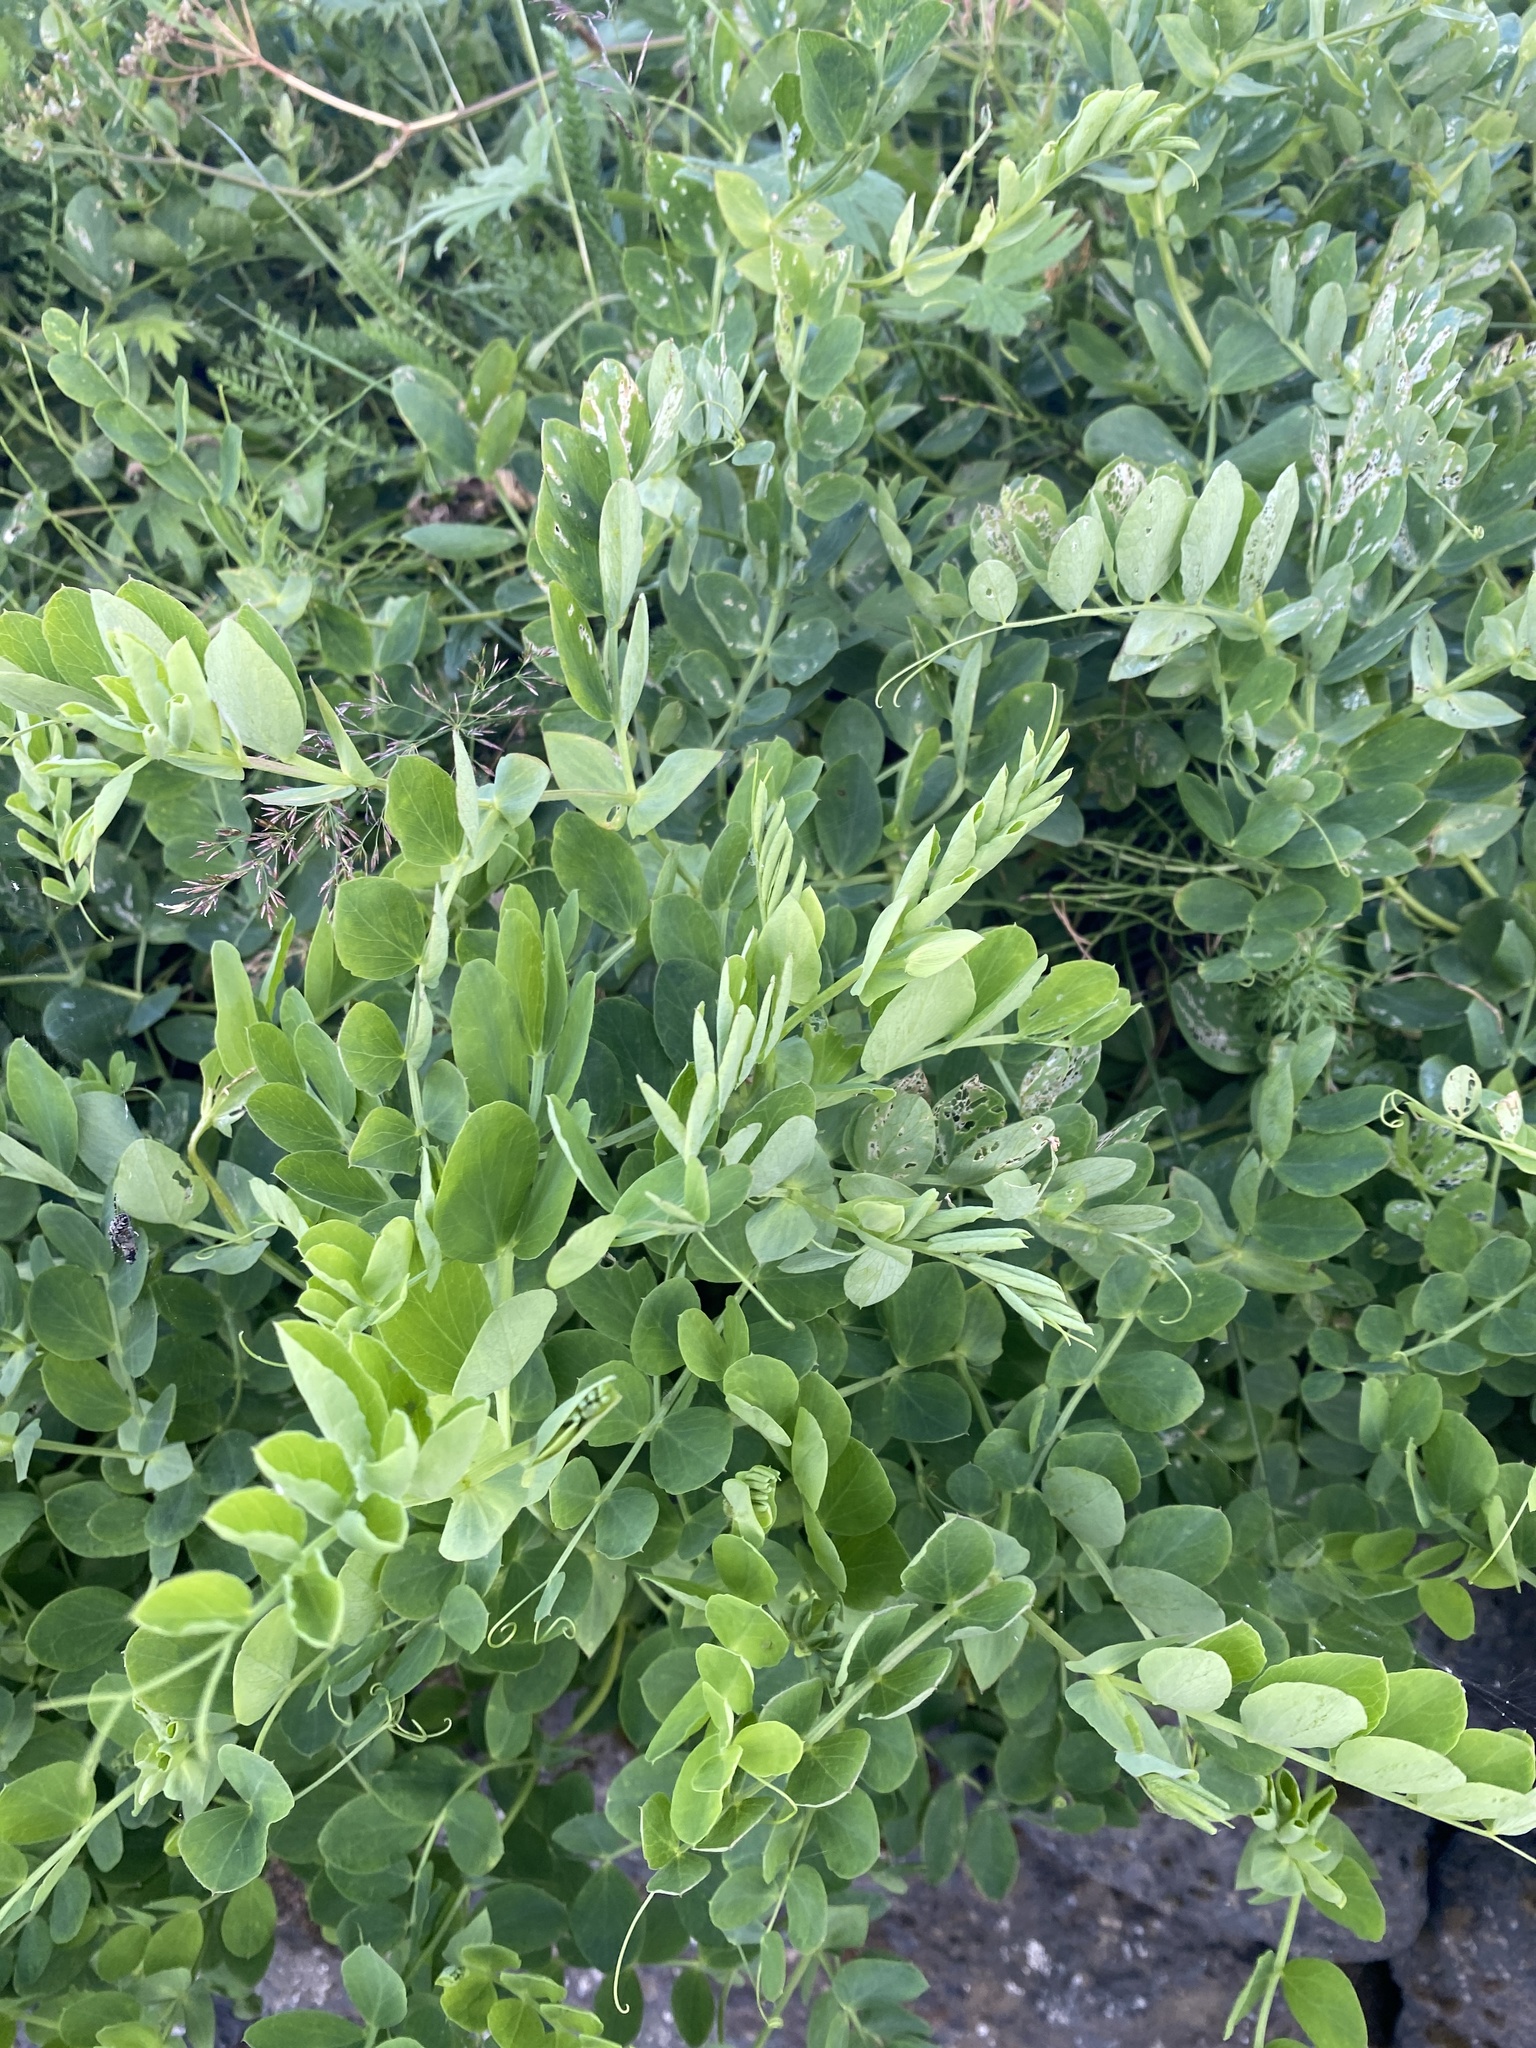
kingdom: Plantae
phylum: Tracheophyta
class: Magnoliopsida
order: Fabales
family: Fabaceae
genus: Lathyrus
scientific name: Lathyrus japonicus
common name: Sea pea
